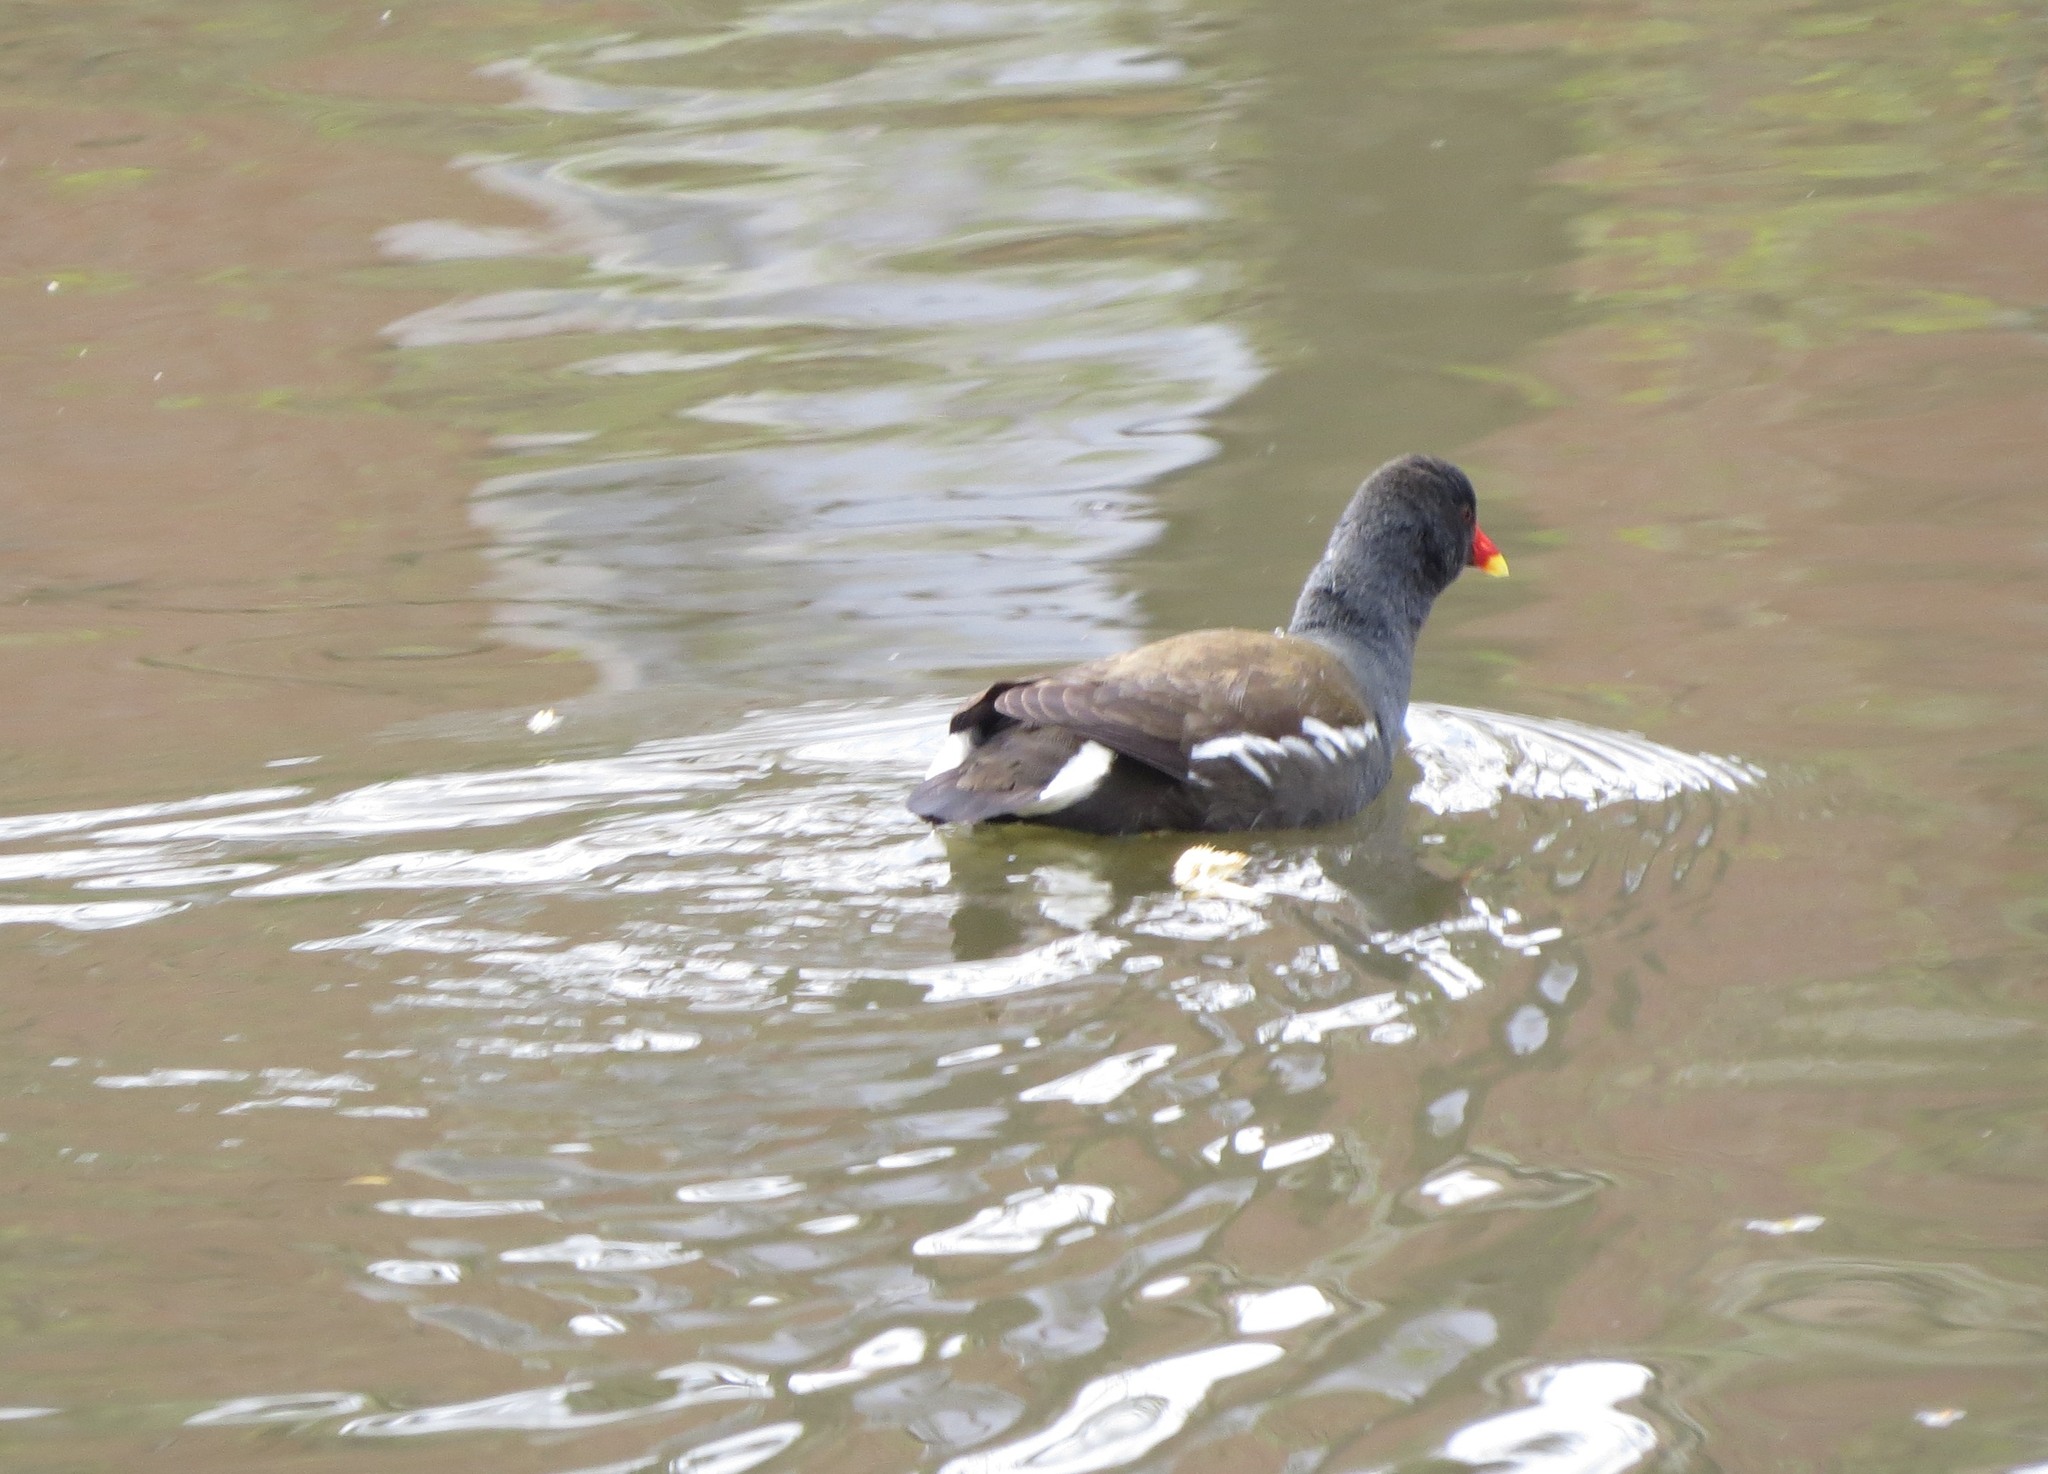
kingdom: Animalia
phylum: Chordata
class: Aves
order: Gruiformes
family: Rallidae
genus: Gallinula
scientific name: Gallinula chloropus
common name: Common moorhen
